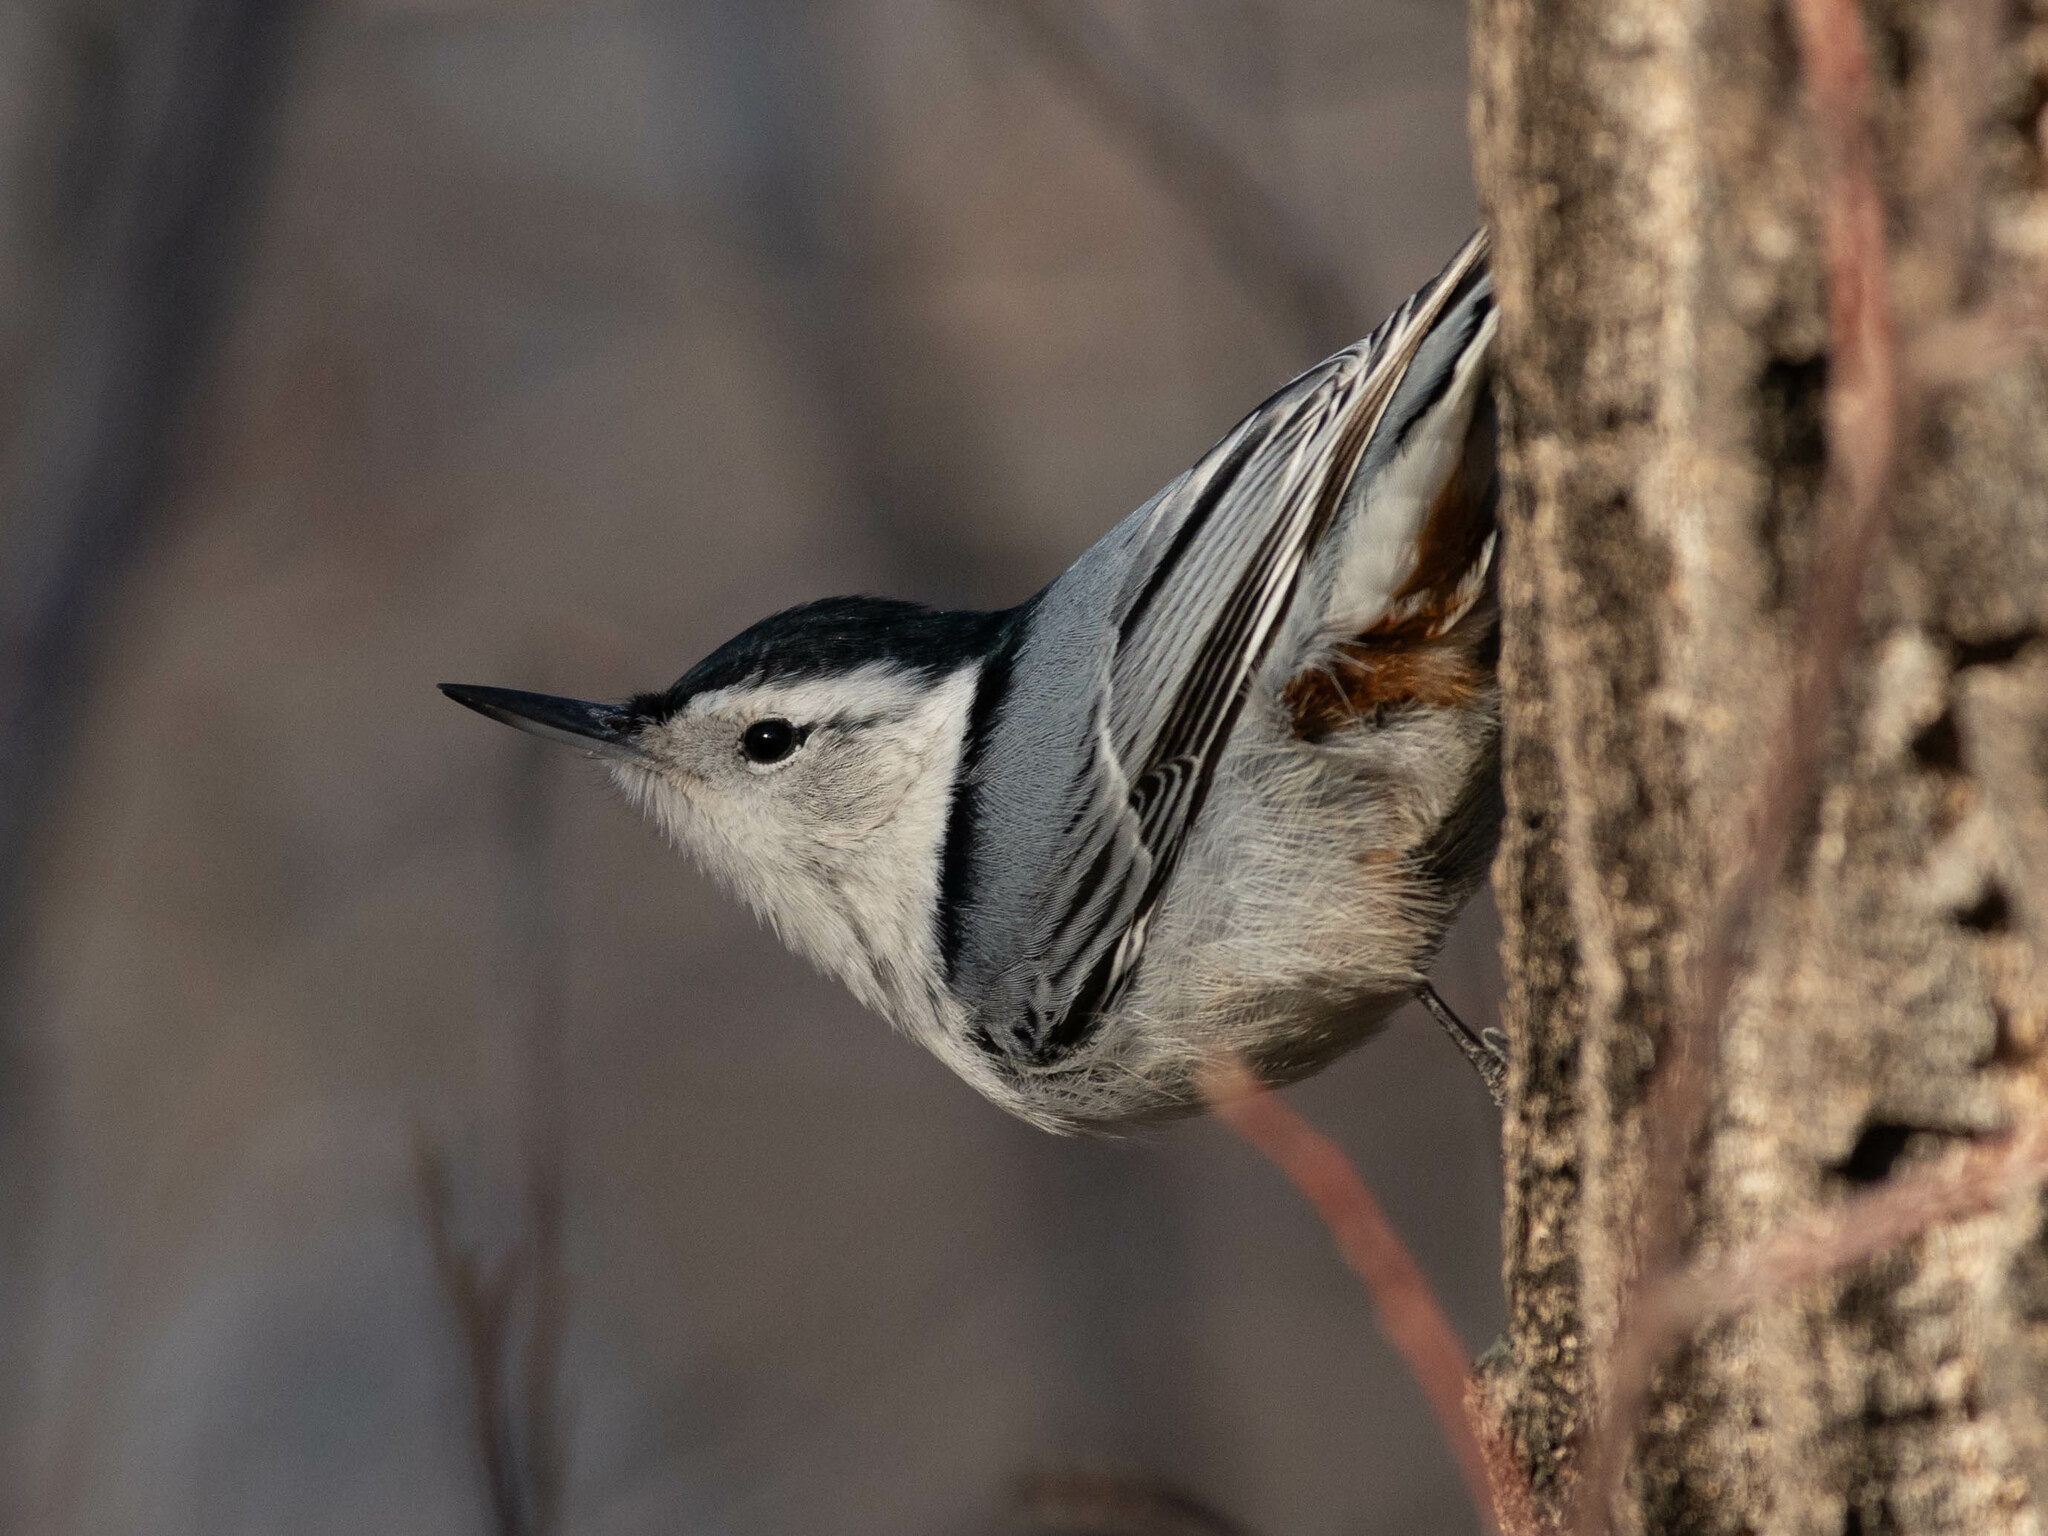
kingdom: Animalia
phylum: Chordata
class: Aves
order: Passeriformes
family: Sittidae
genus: Sitta
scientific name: Sitta carolinensis
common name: White-breasted nuthatch
